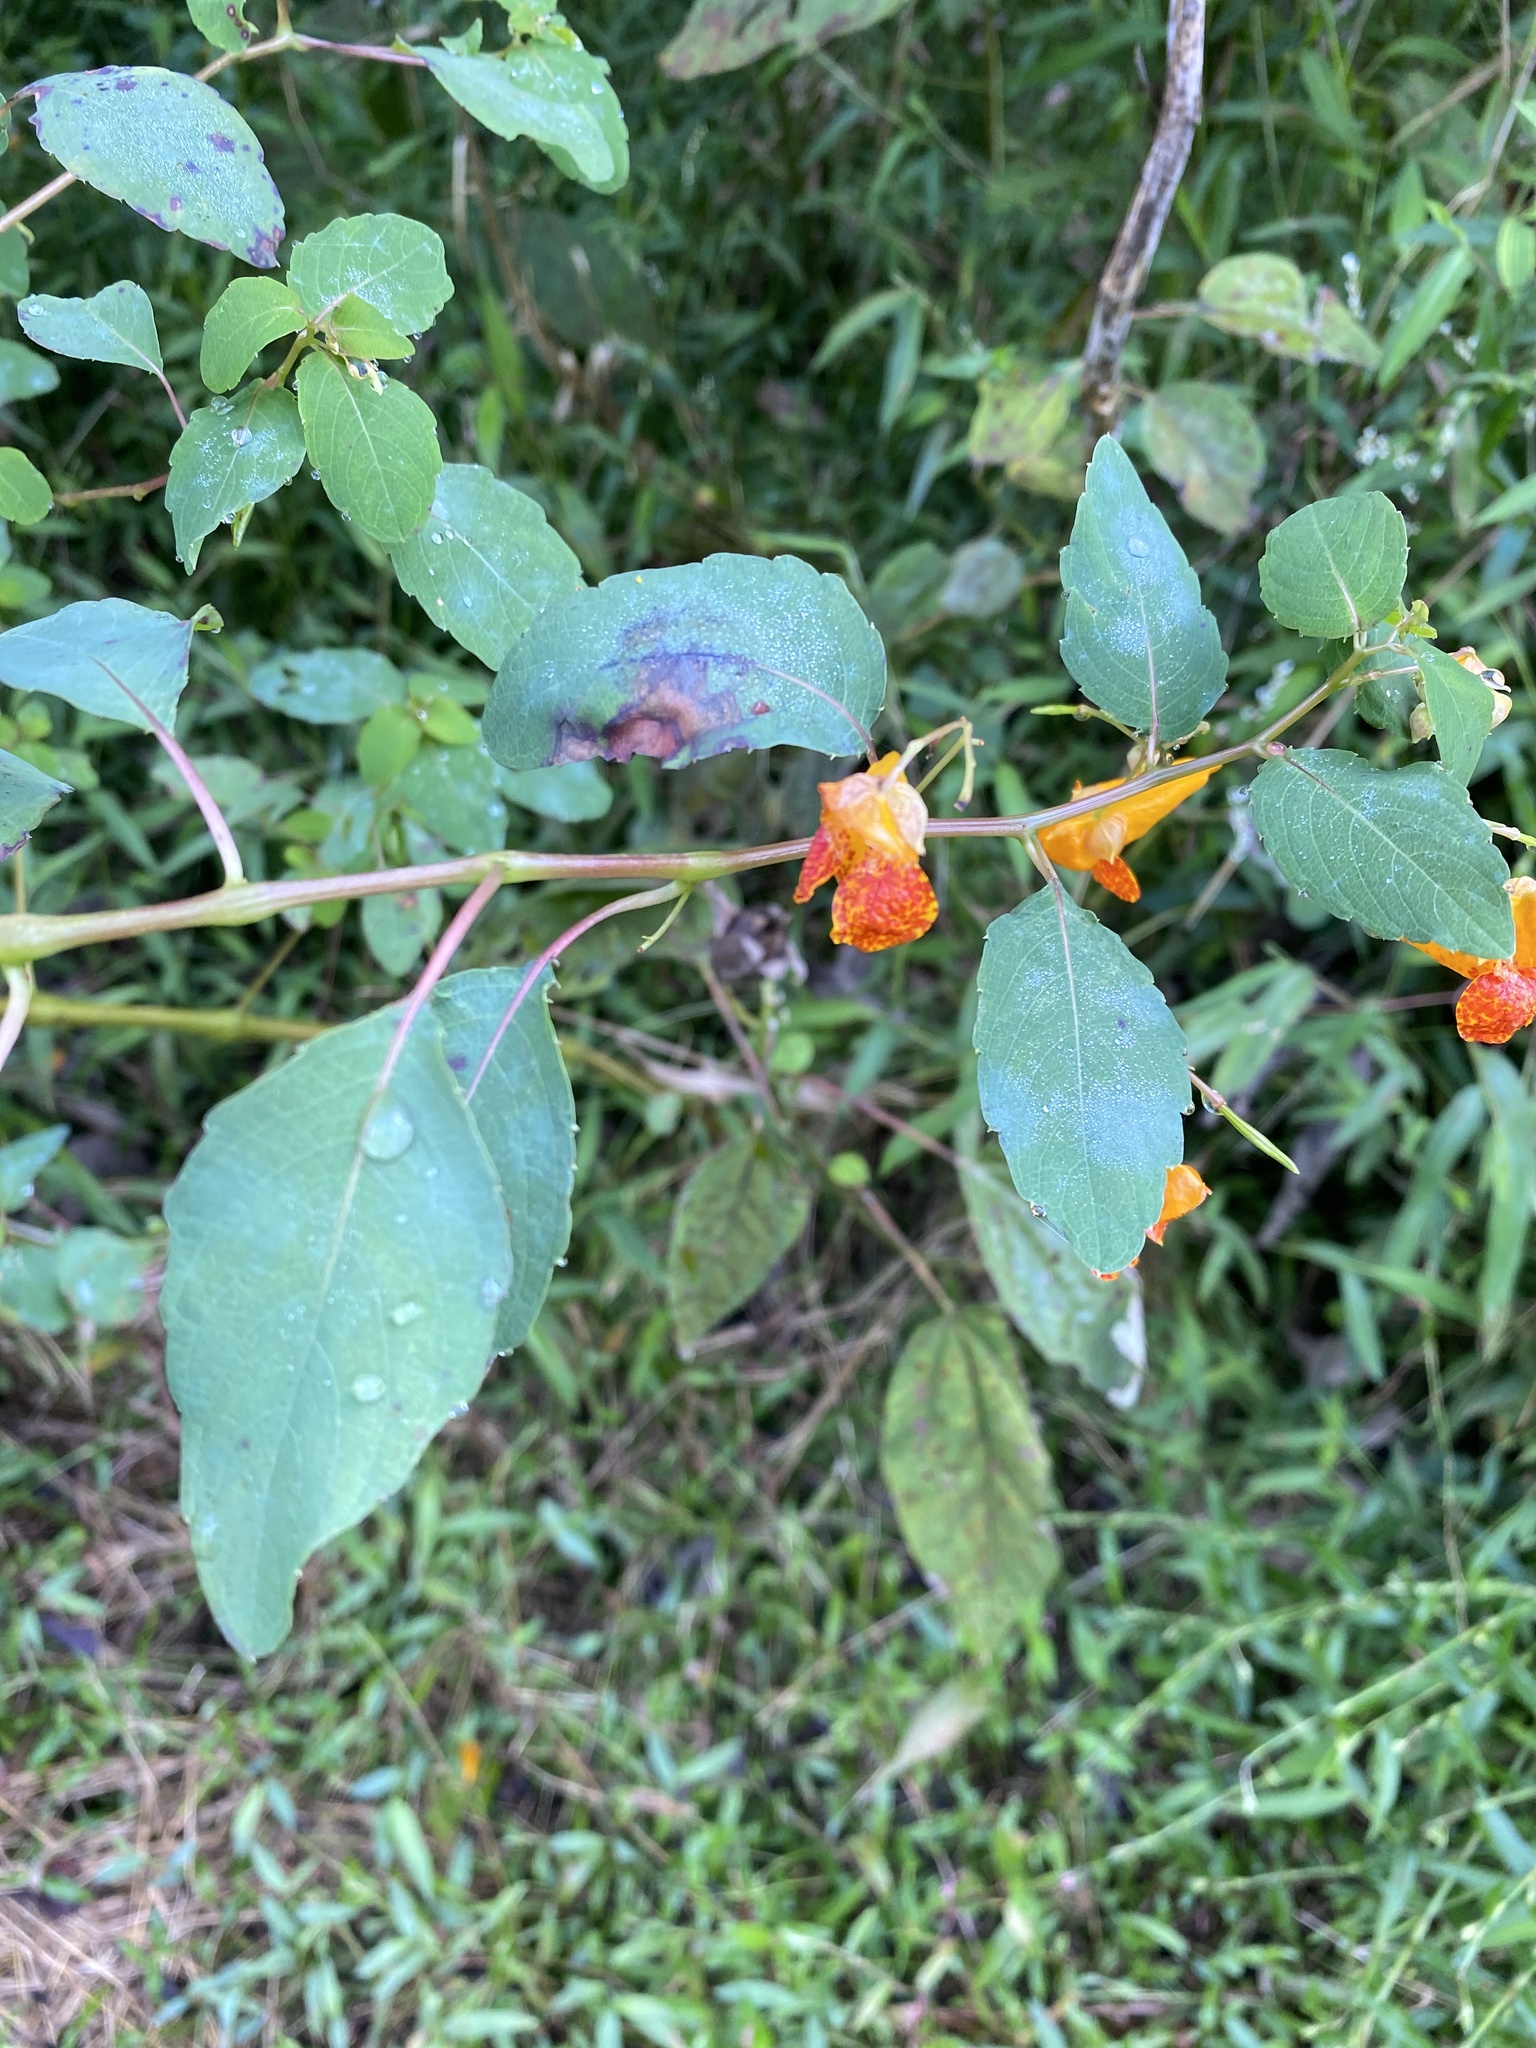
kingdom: Plantae
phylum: Tracheophyta
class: Magnoliopsida
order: Ericales
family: Balsaminaceae
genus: Impatiens
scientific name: Impatiens capensis
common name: Orange balsam
